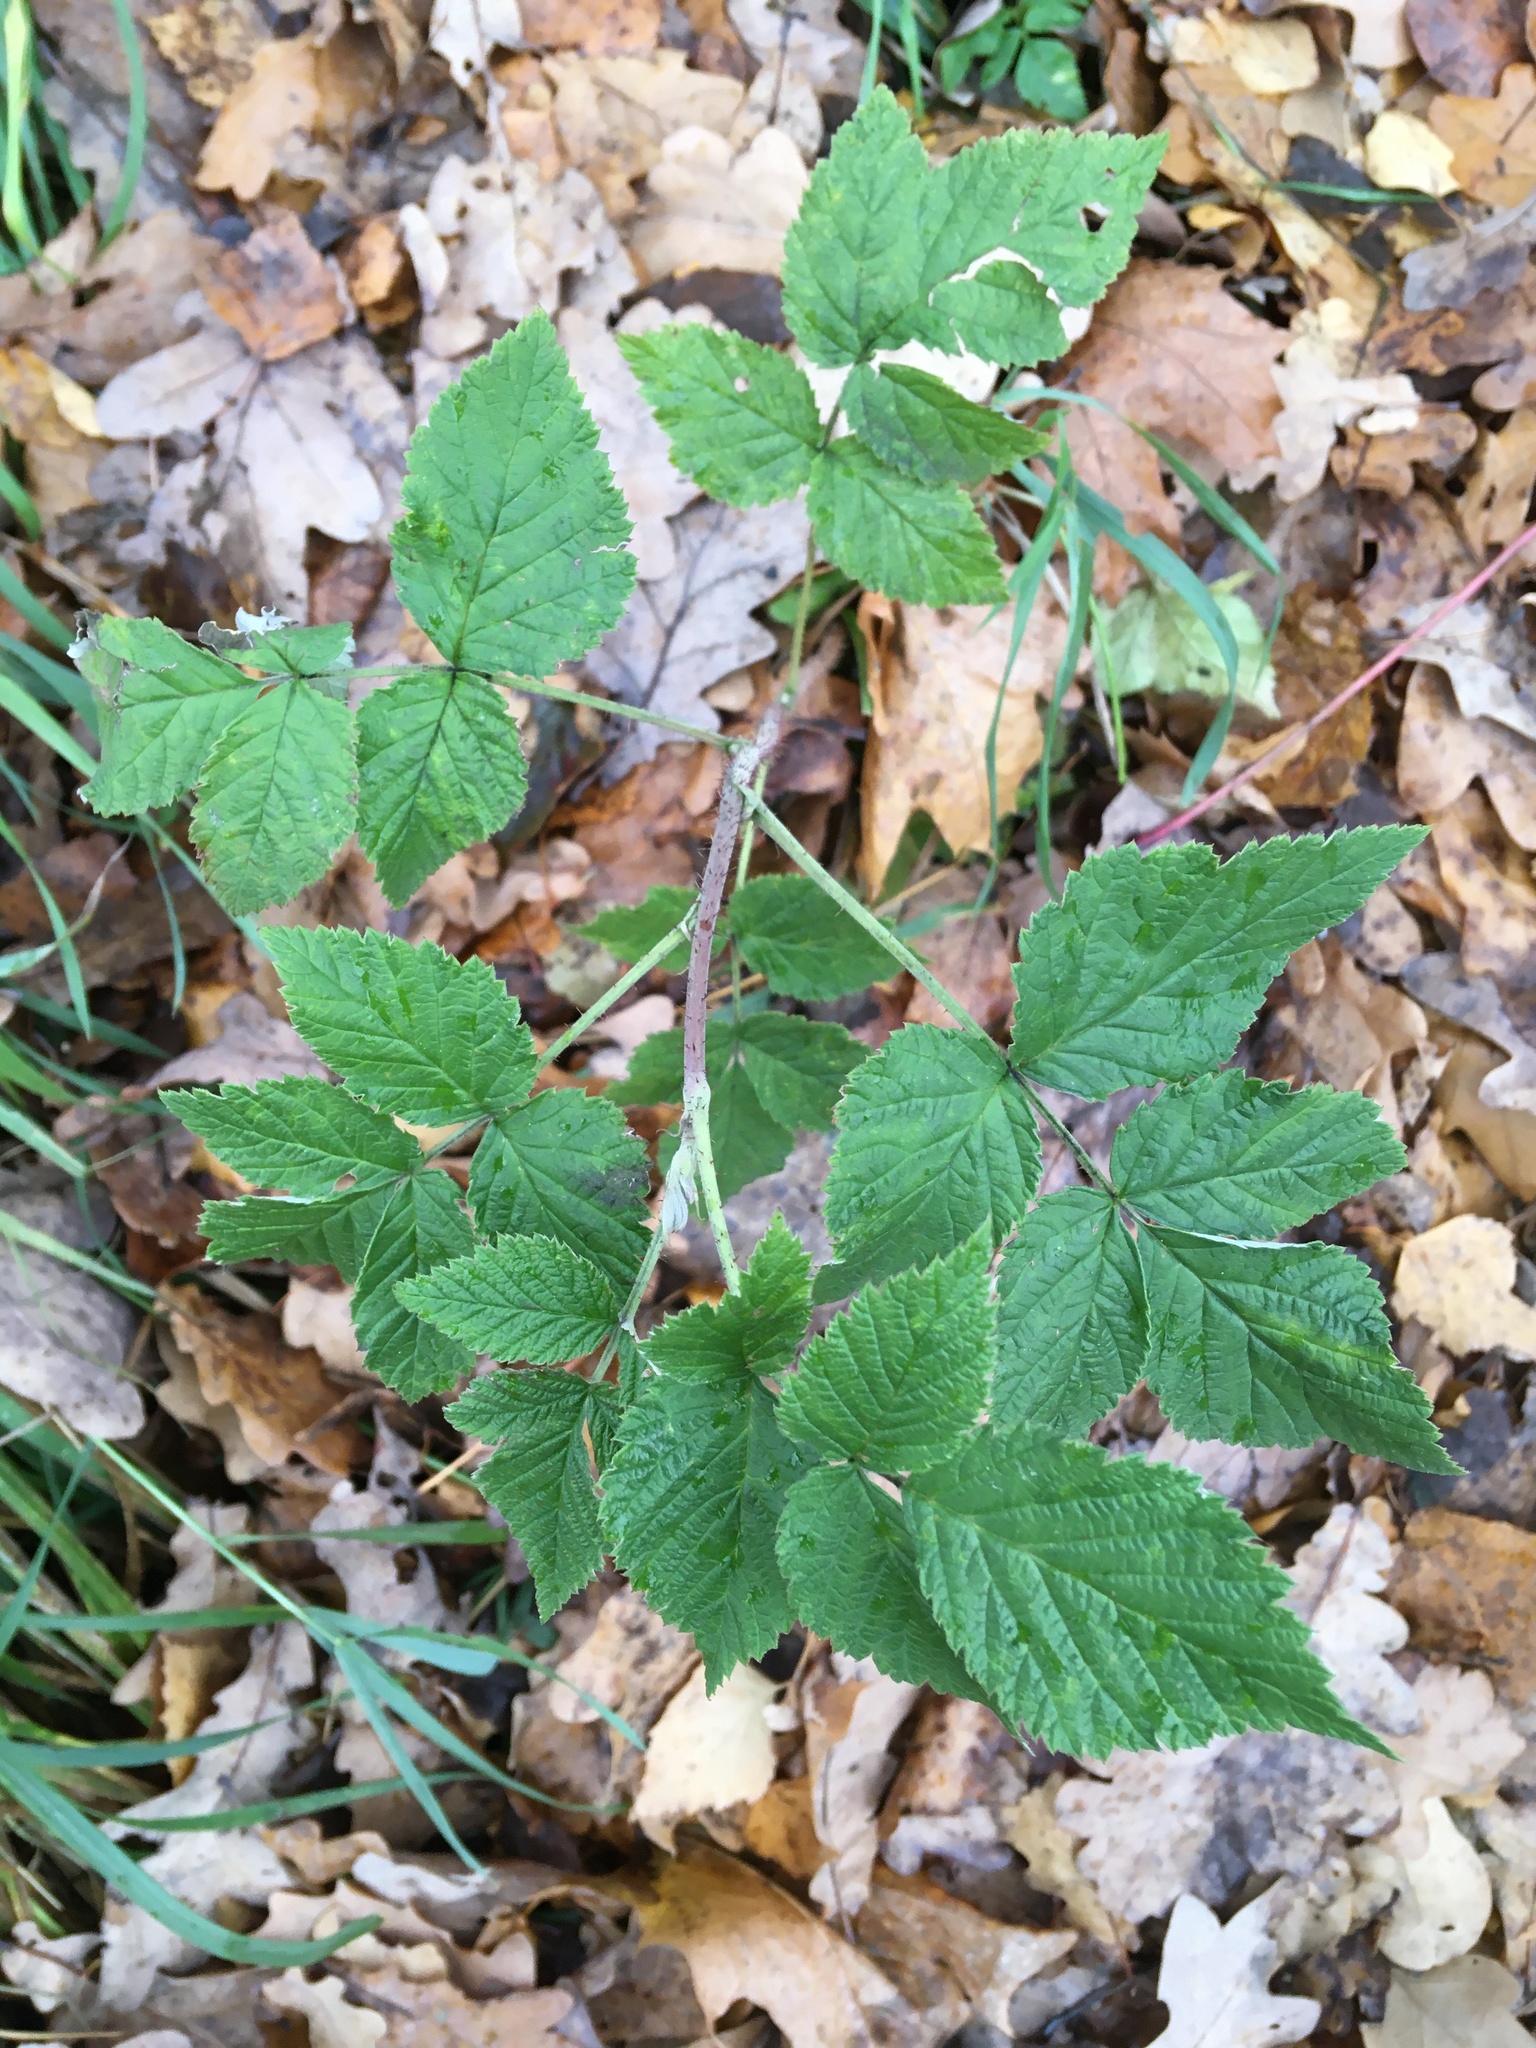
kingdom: Plantae
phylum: Tracheophyta
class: Magnoliopsida
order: Rosales
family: Rosaceae
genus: Rubus
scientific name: Rubus idaeus
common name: Raspberry
